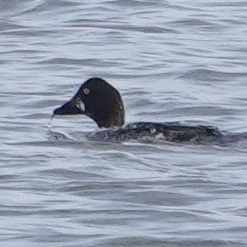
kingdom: Animalia
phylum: Chordata
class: Aves
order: Anseriformes
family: Anatidae
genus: Bucephala
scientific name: Bucephala clangula
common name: Common goldeneye
